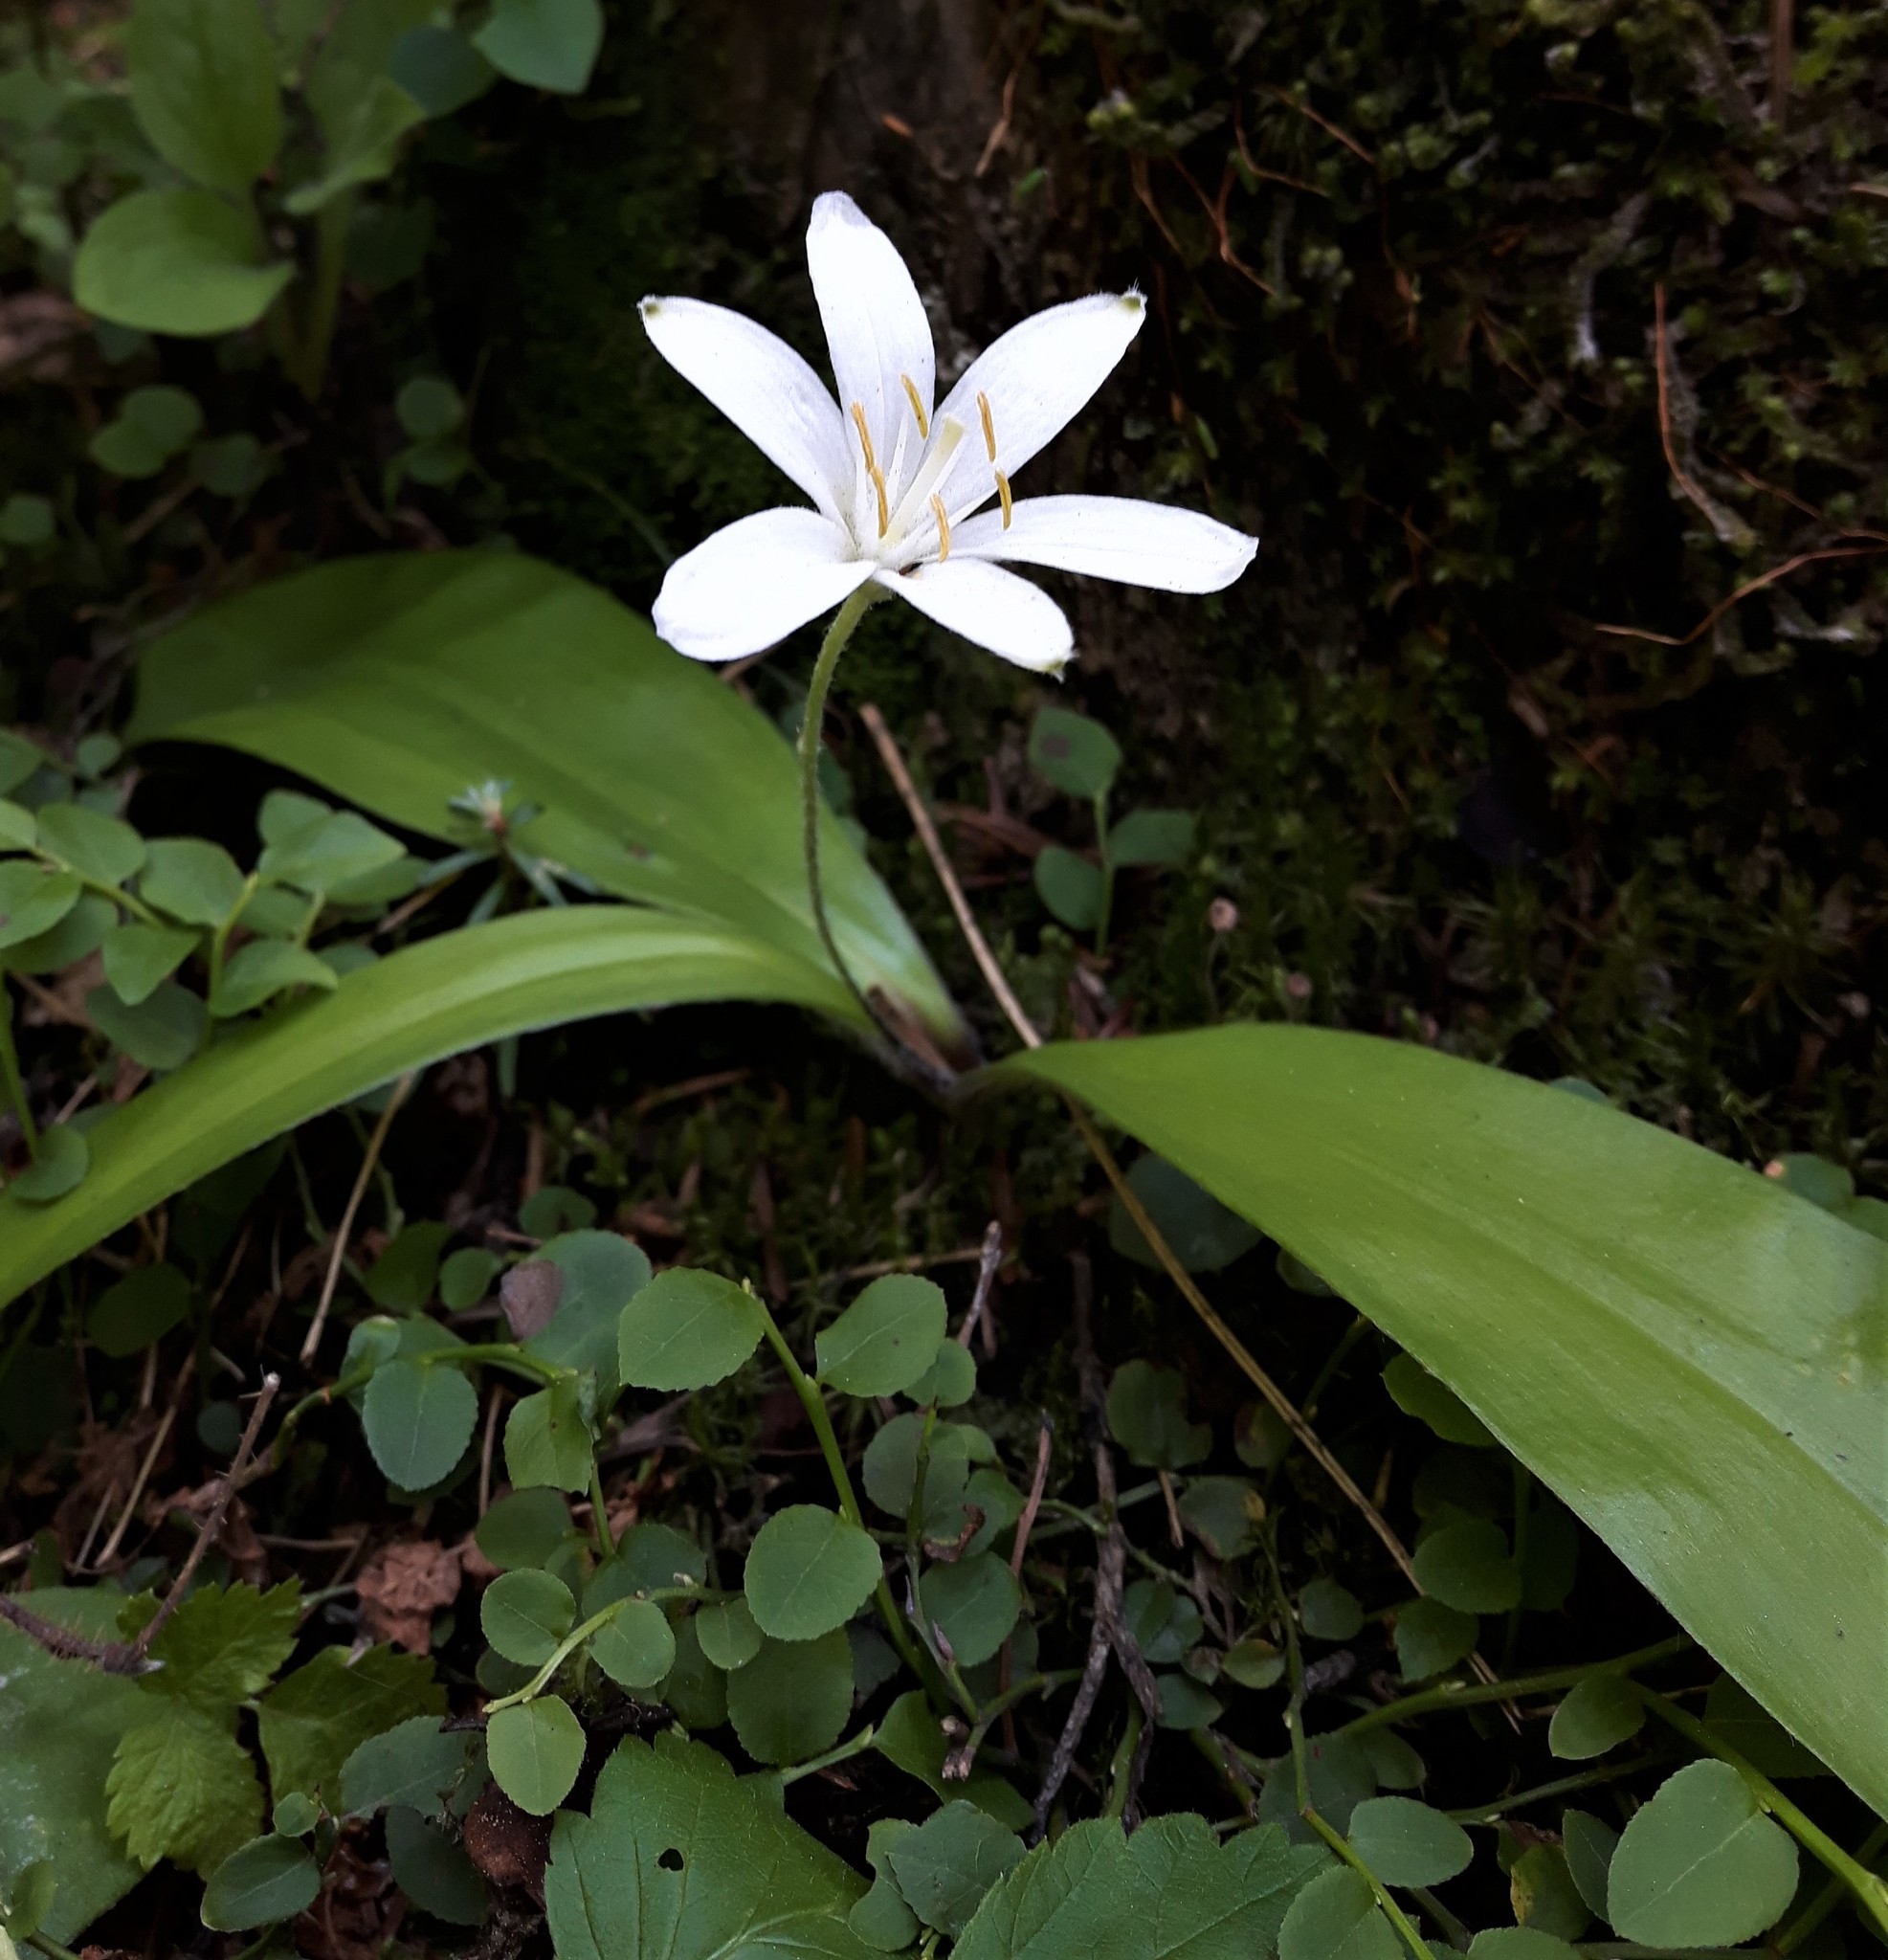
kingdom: Plantae
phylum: Tracheophyta
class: Liliopsida
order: Liliales
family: Liliaceae
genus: Clintonia
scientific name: Clintonia uniflora
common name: Queen's cup
